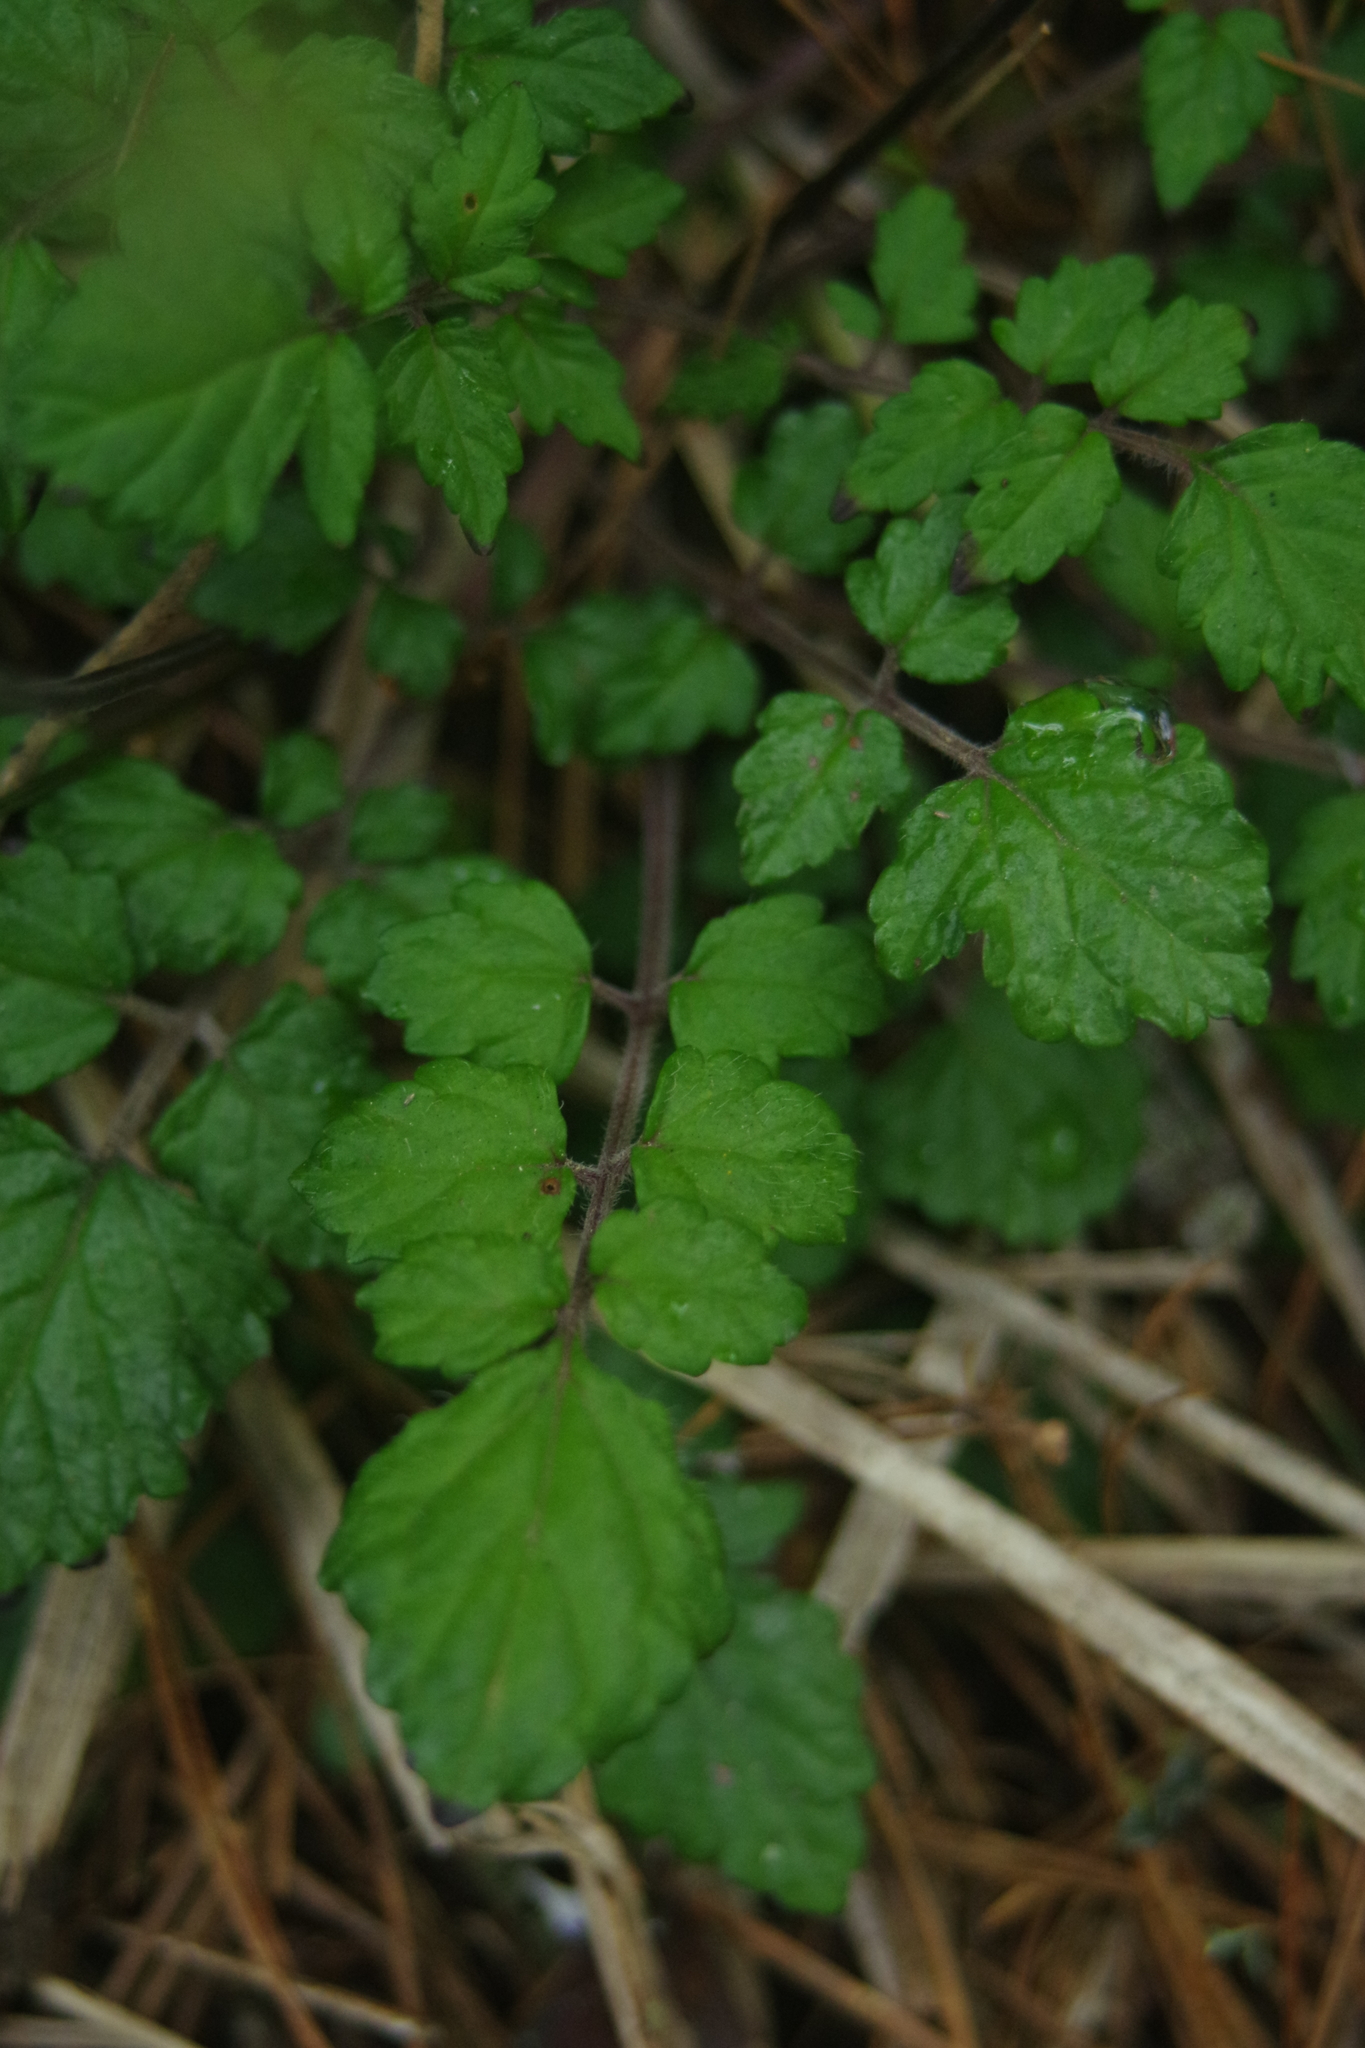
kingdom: Plantae
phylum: Tracheophyta
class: Magnoliopsida
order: Lamiales
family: Lamiaceae
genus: Salvia
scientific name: Salvia hayatae
